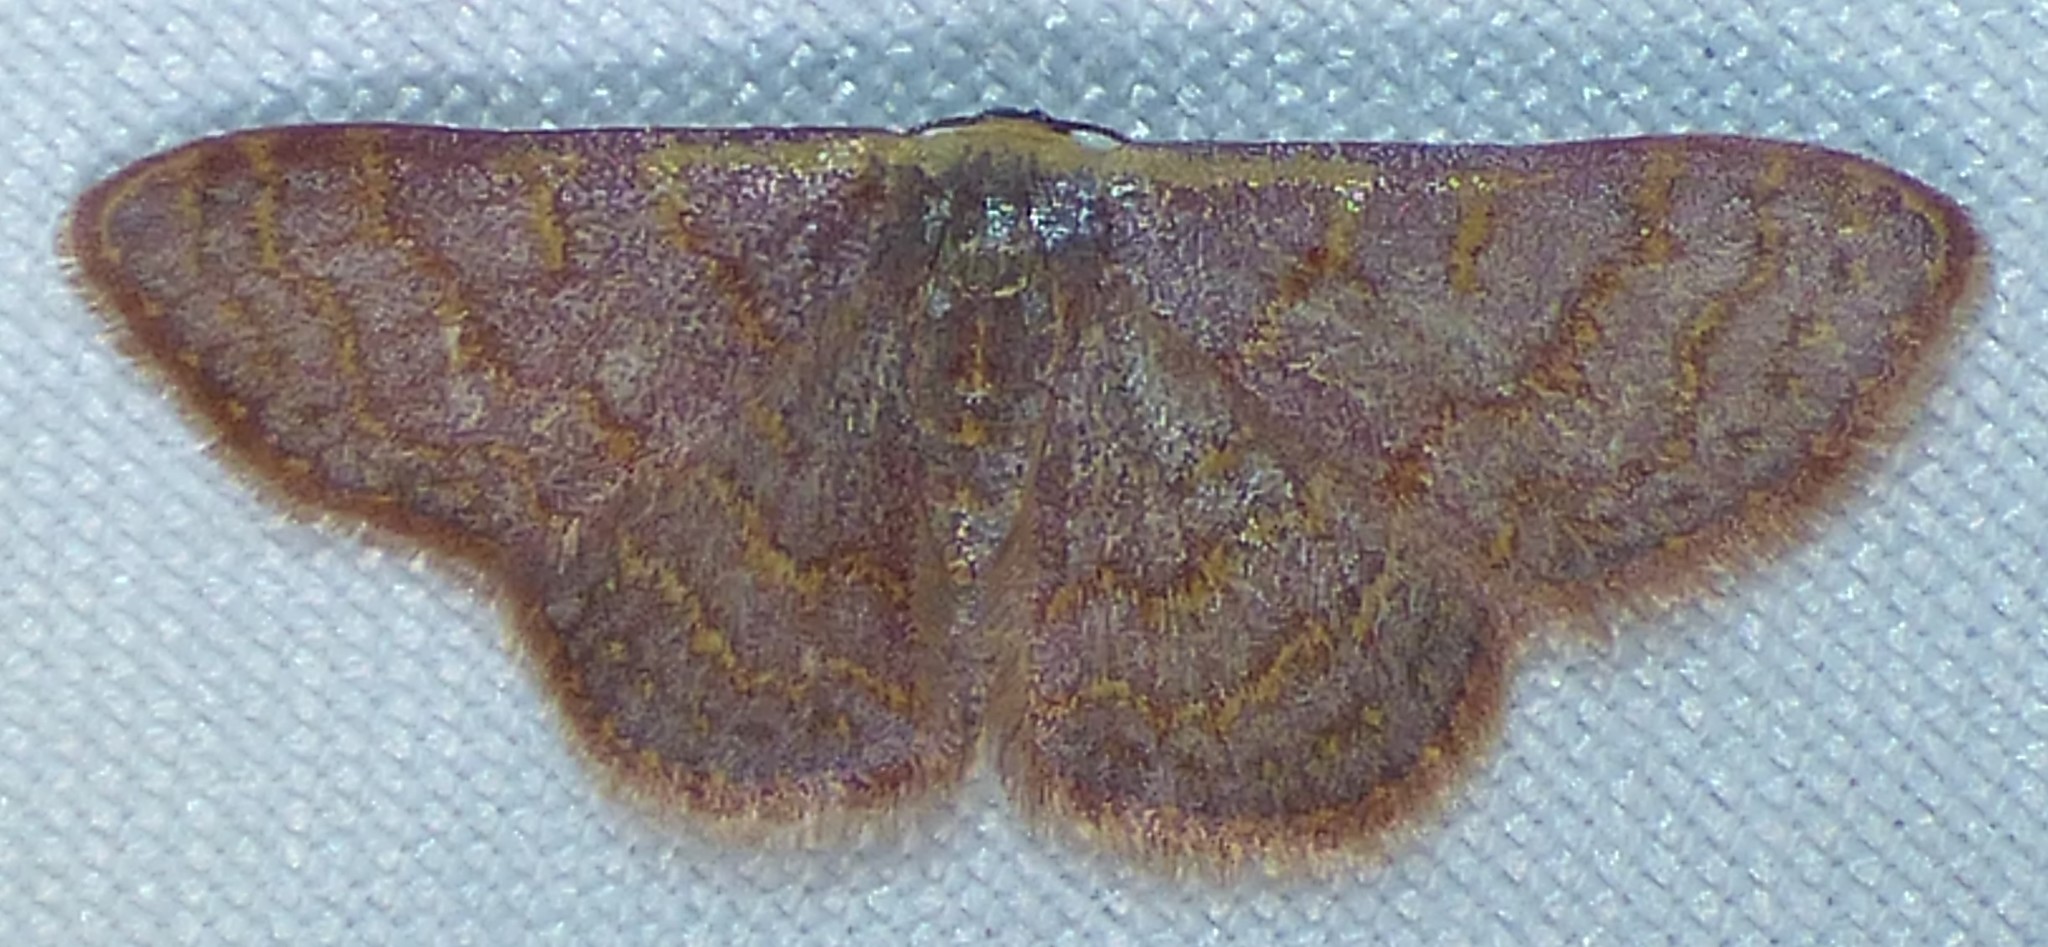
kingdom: Animalia
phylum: Arthropoda
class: Insecta
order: Lepidoptera
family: Geometridae
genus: Leptostales
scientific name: Leptostales pannaria
